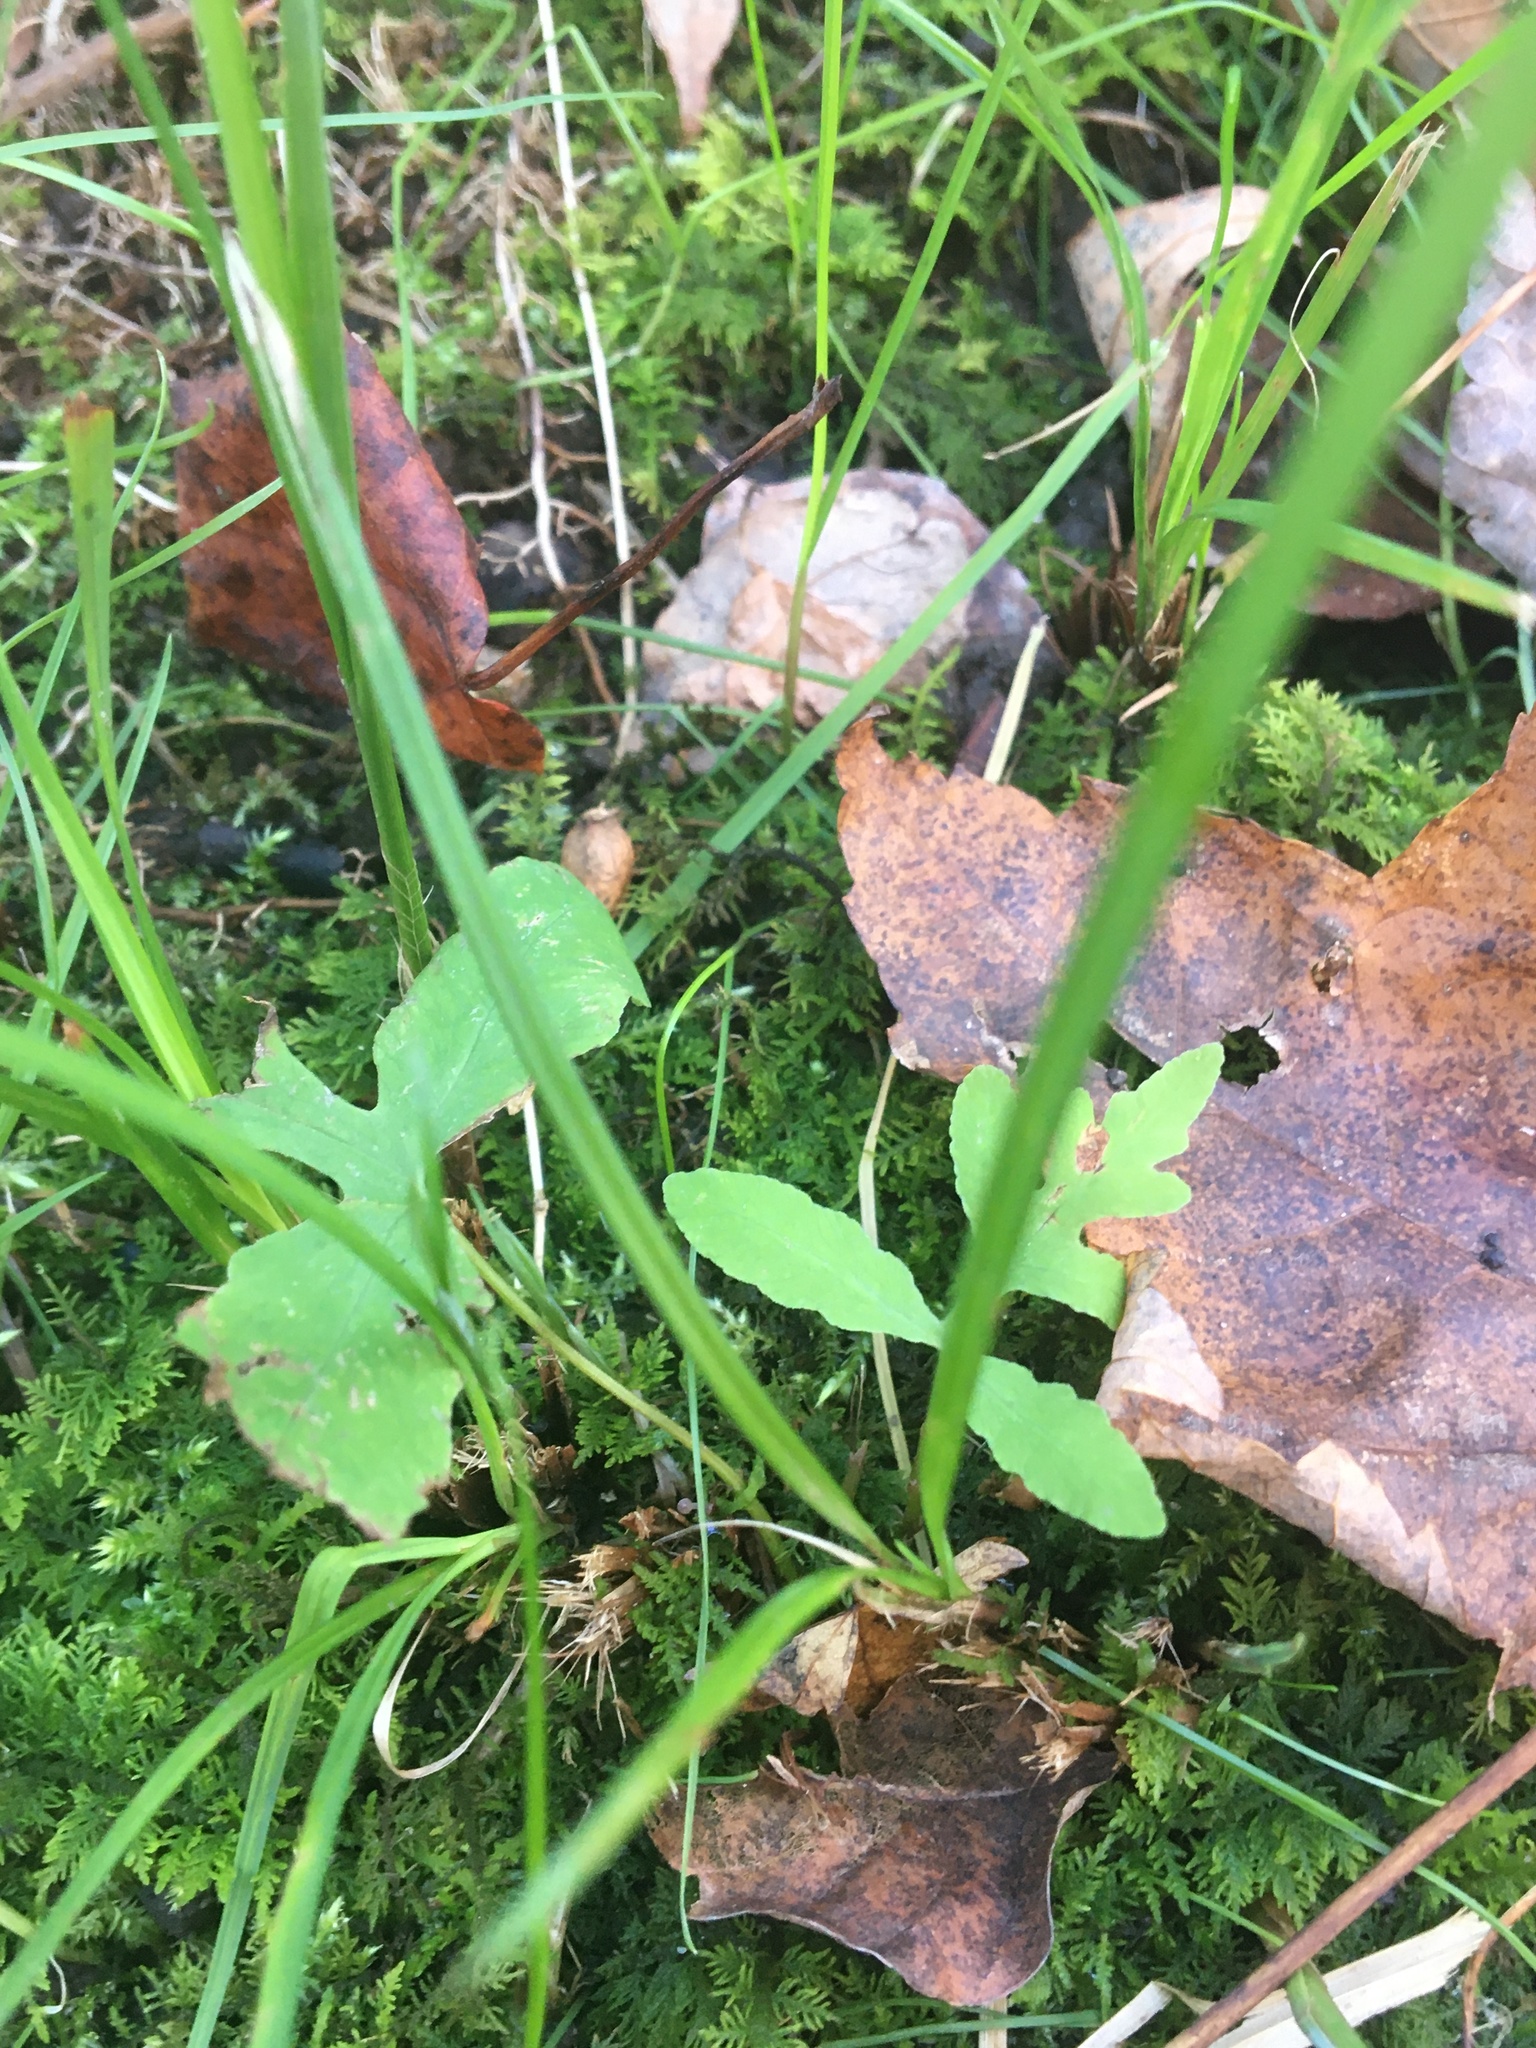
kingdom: Plantae
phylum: Bryophyta
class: Bryopsida
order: Hypnales
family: Thuidiaceae
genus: Thuidium
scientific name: Thuidium delicatulum
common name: Delicate fern moss
